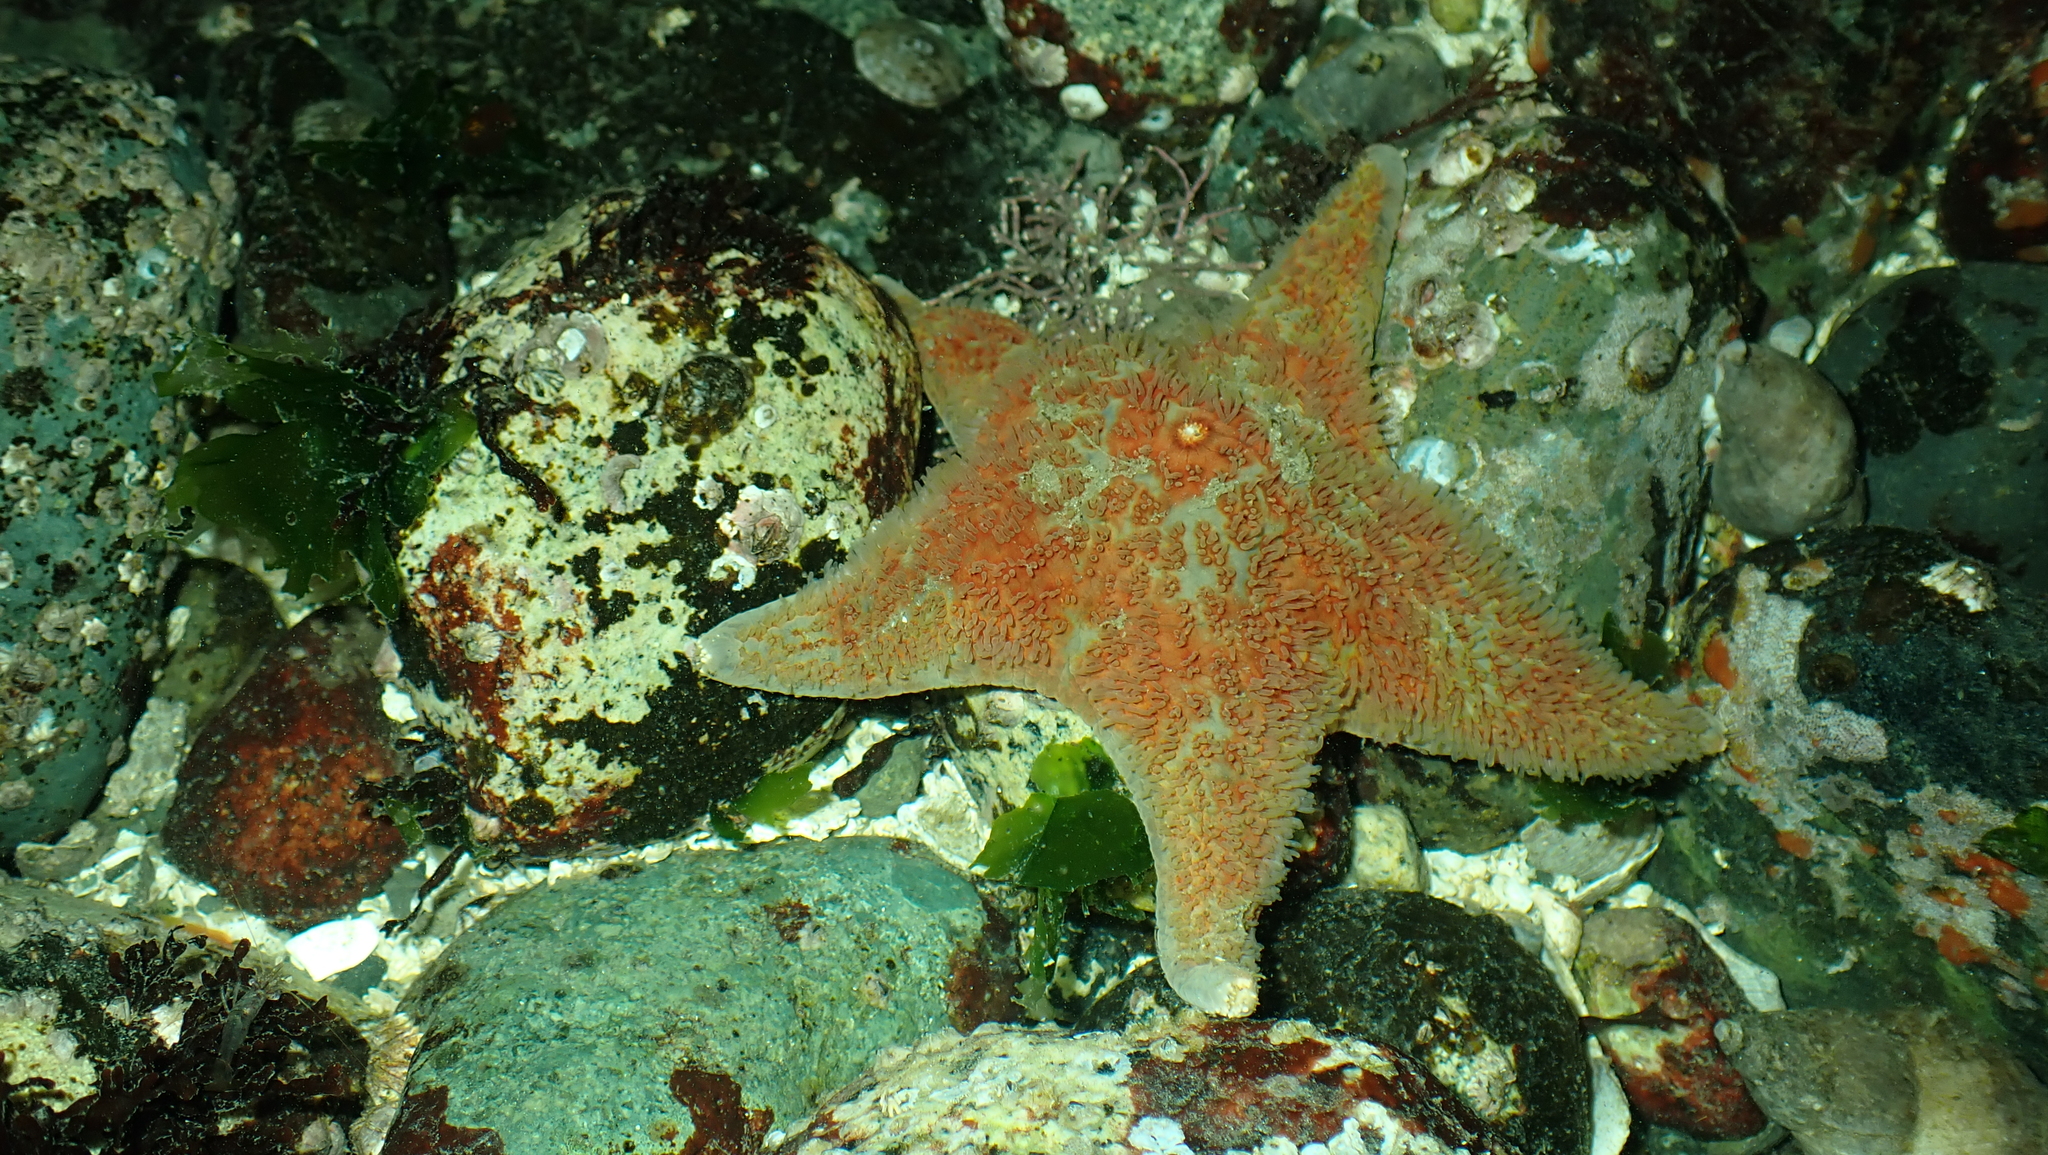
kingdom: Animalia
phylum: Echinodermata
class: Asteroidea
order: Valvatida
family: Asteropseidae
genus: Dermasterias
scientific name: Dermasterias imbricata
